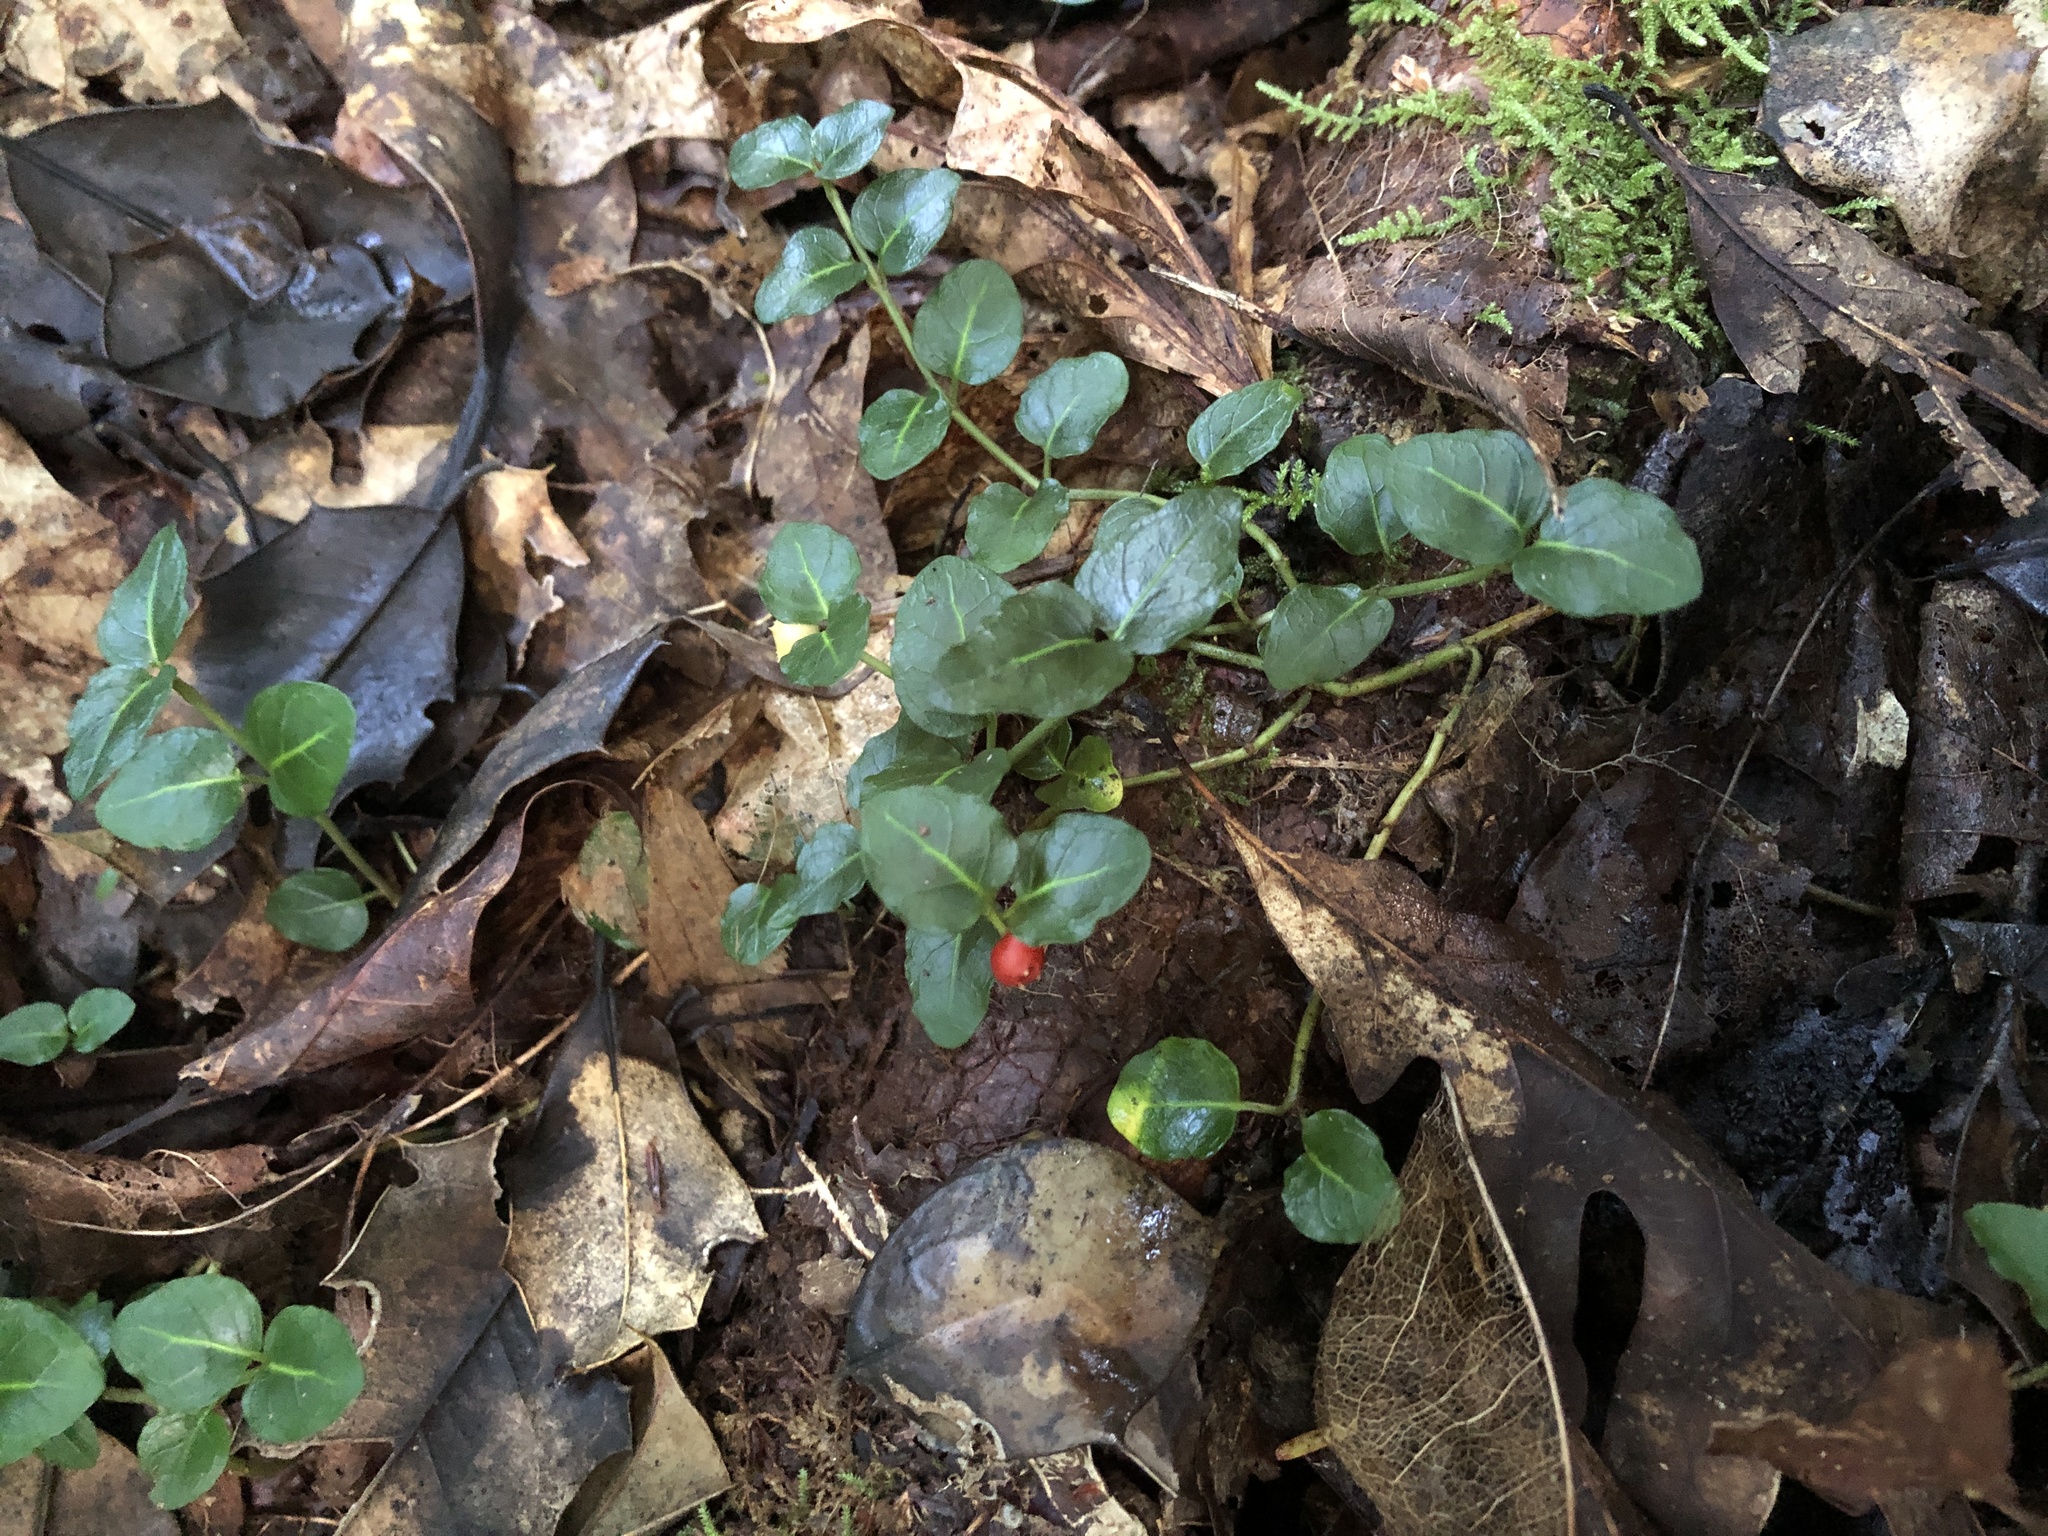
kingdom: Plantae
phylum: Tracheophyta
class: Magnoliopsida
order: Gentianales
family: Rubiaceae
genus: Mitchella
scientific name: Mitchella repens
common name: Partridge-berry
